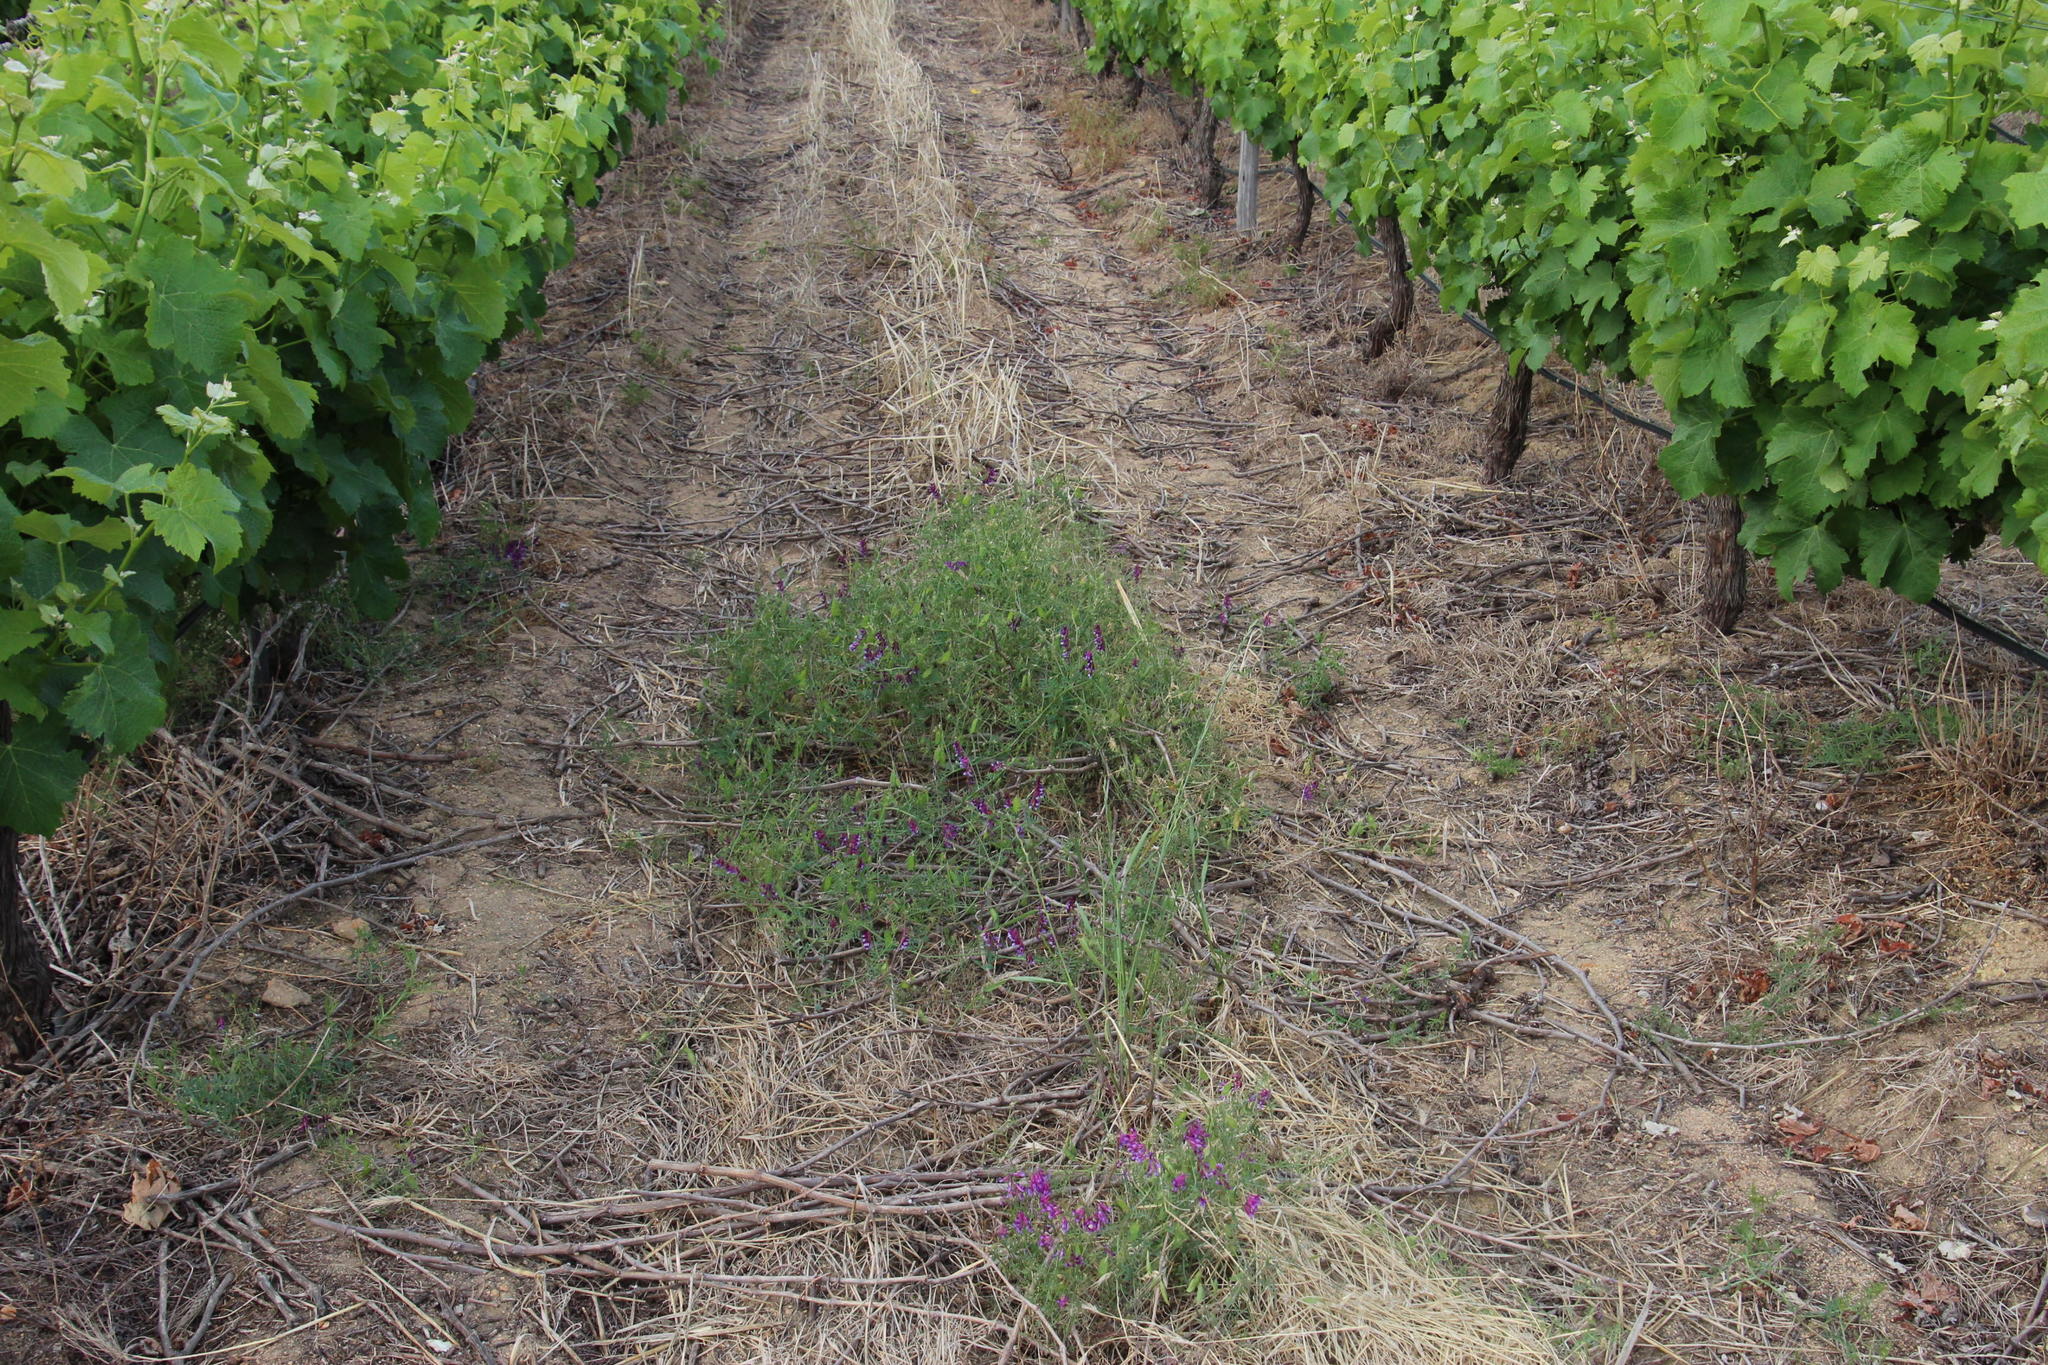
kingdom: Plantae
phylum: Tracheophyta
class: Magnoliopsida
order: Fabales
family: Fabaceae
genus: Vicia
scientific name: Vicia eriocarpa
